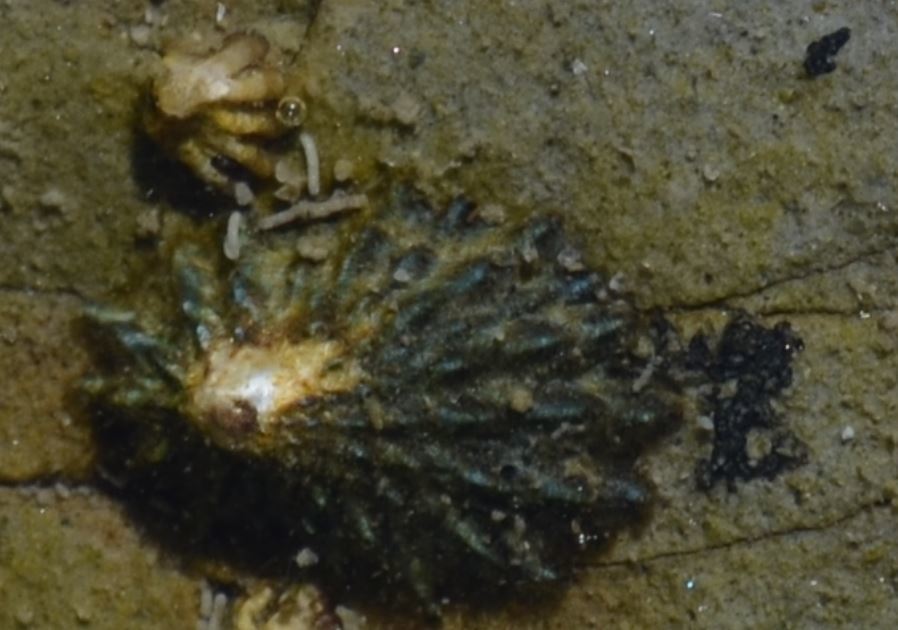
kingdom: Animalia
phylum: Mollusca
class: Gastropoda
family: Lottiidae
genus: Lottia
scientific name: Lottia scabra
